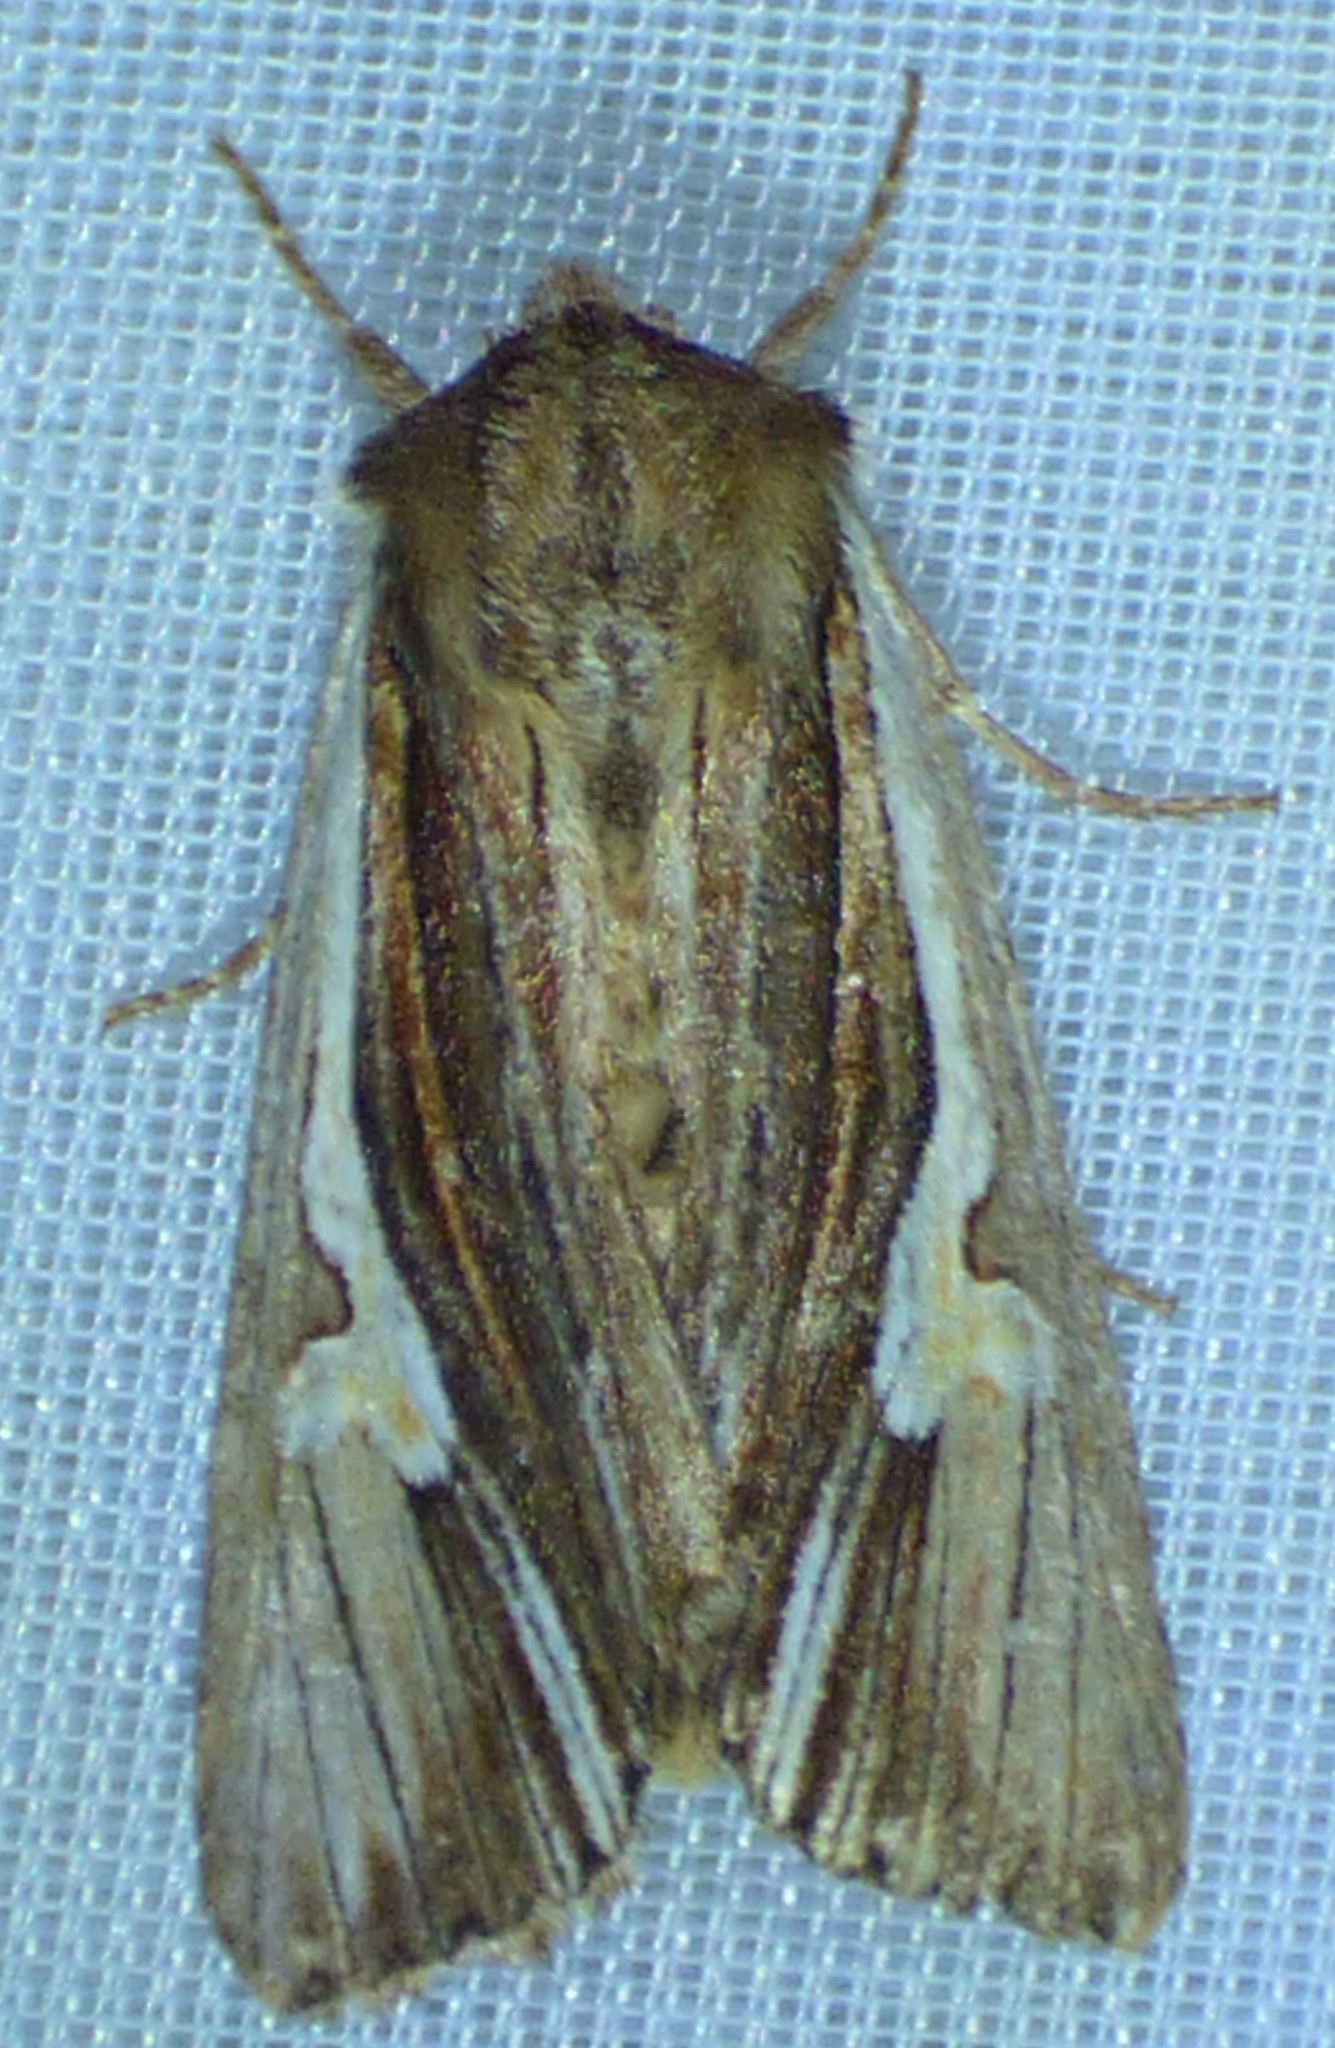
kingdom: Animalia
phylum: Arthropoda
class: Insecta
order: Lepidoptera
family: Noctuidae
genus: Achatia
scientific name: Achatia evicta
